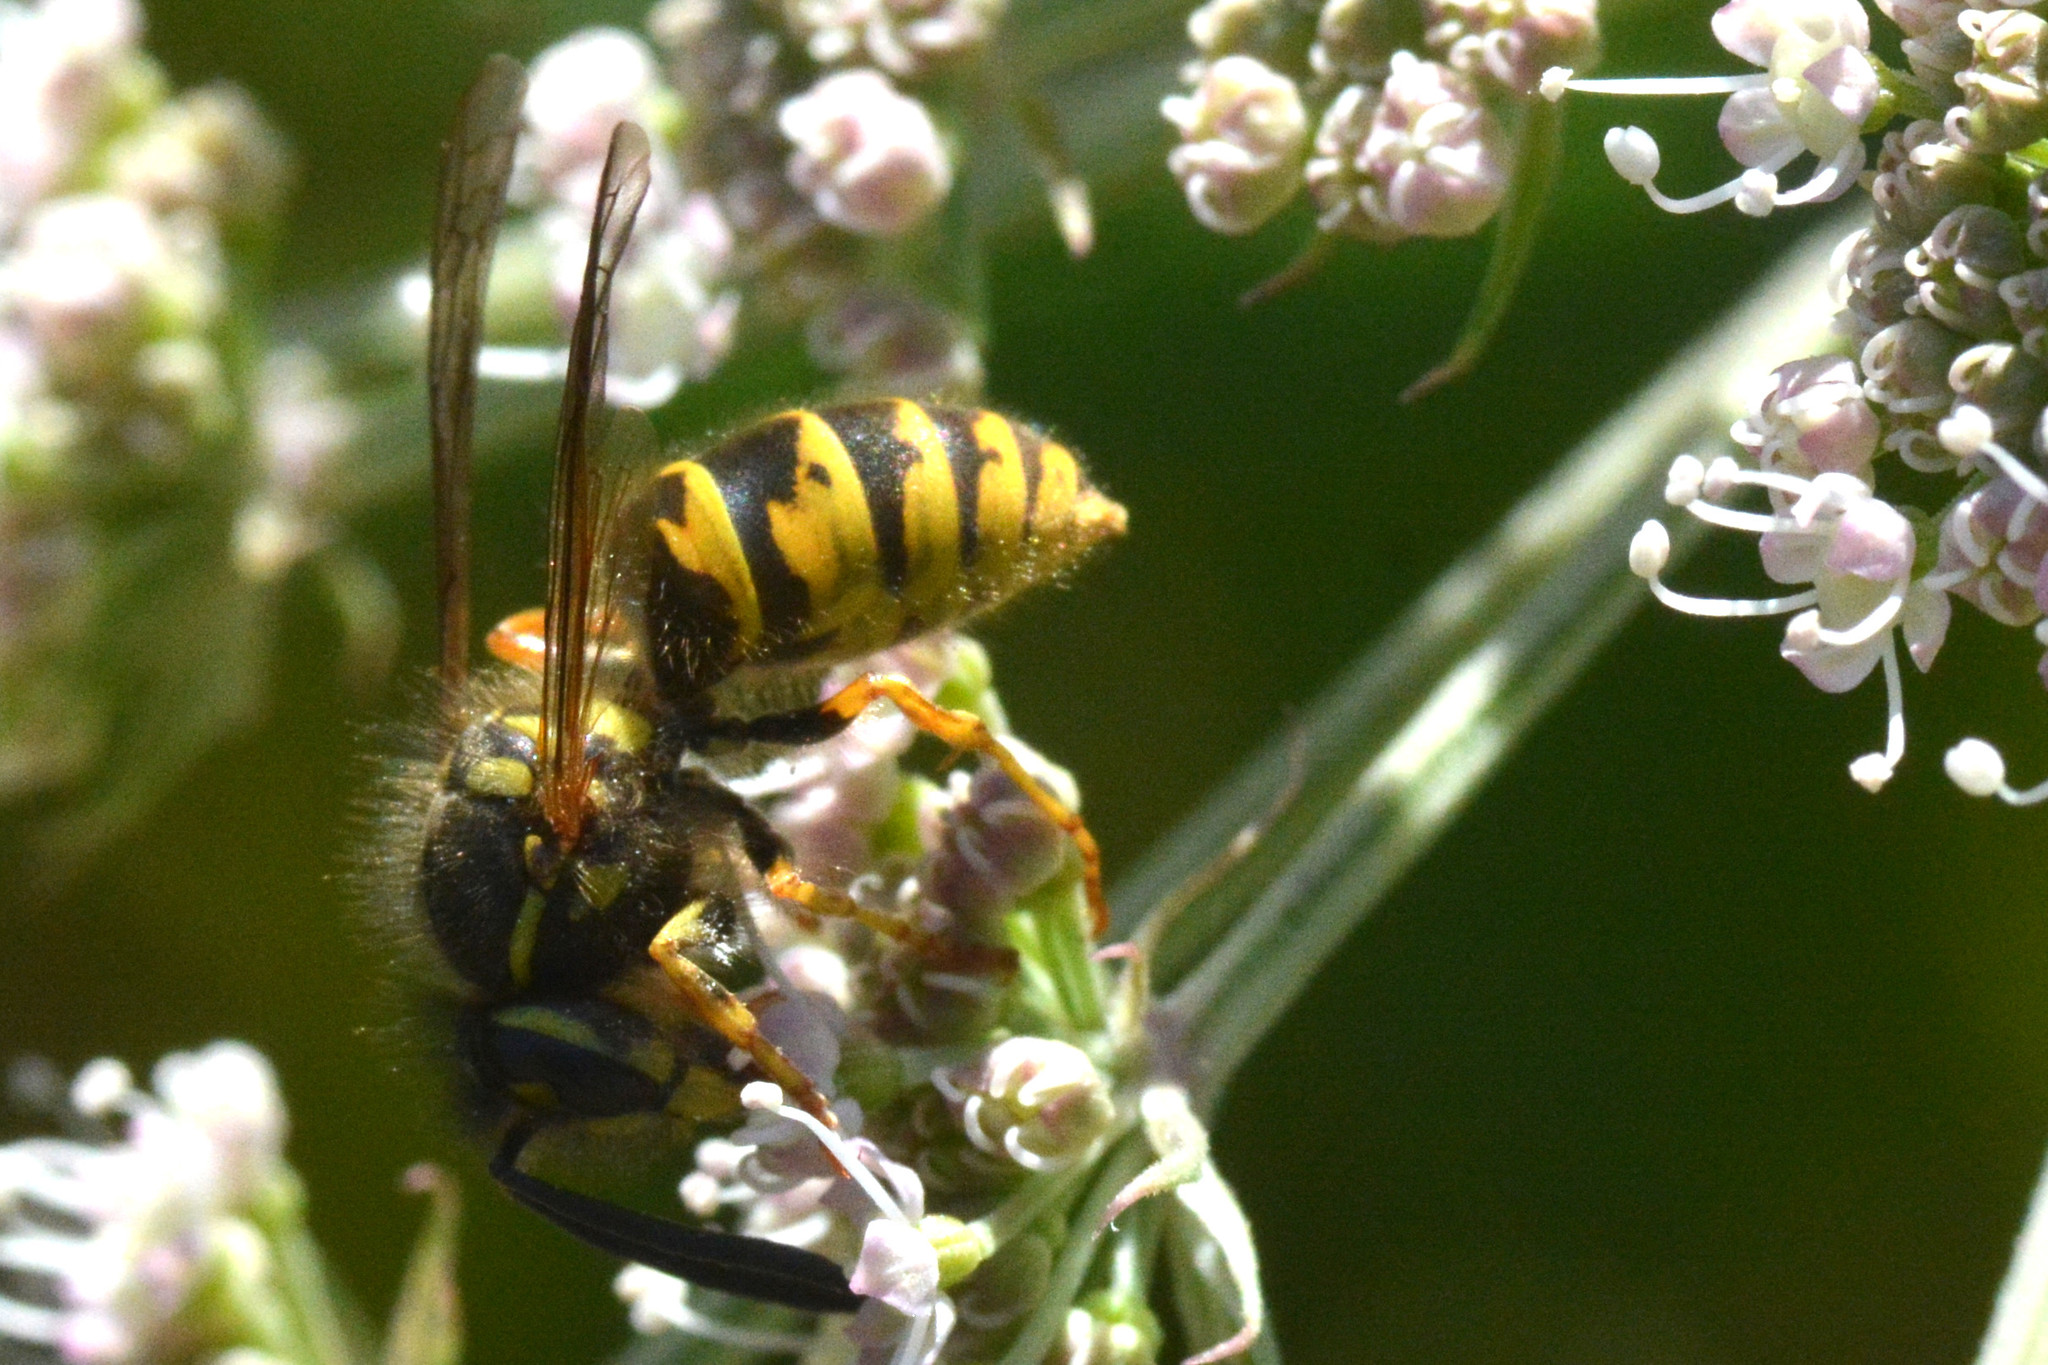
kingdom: Animalia
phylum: Arthropoda
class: Insecta
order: Hymenoptera
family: Vespidae
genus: Vespula
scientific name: Vespula vulgaris
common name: Common wasp
